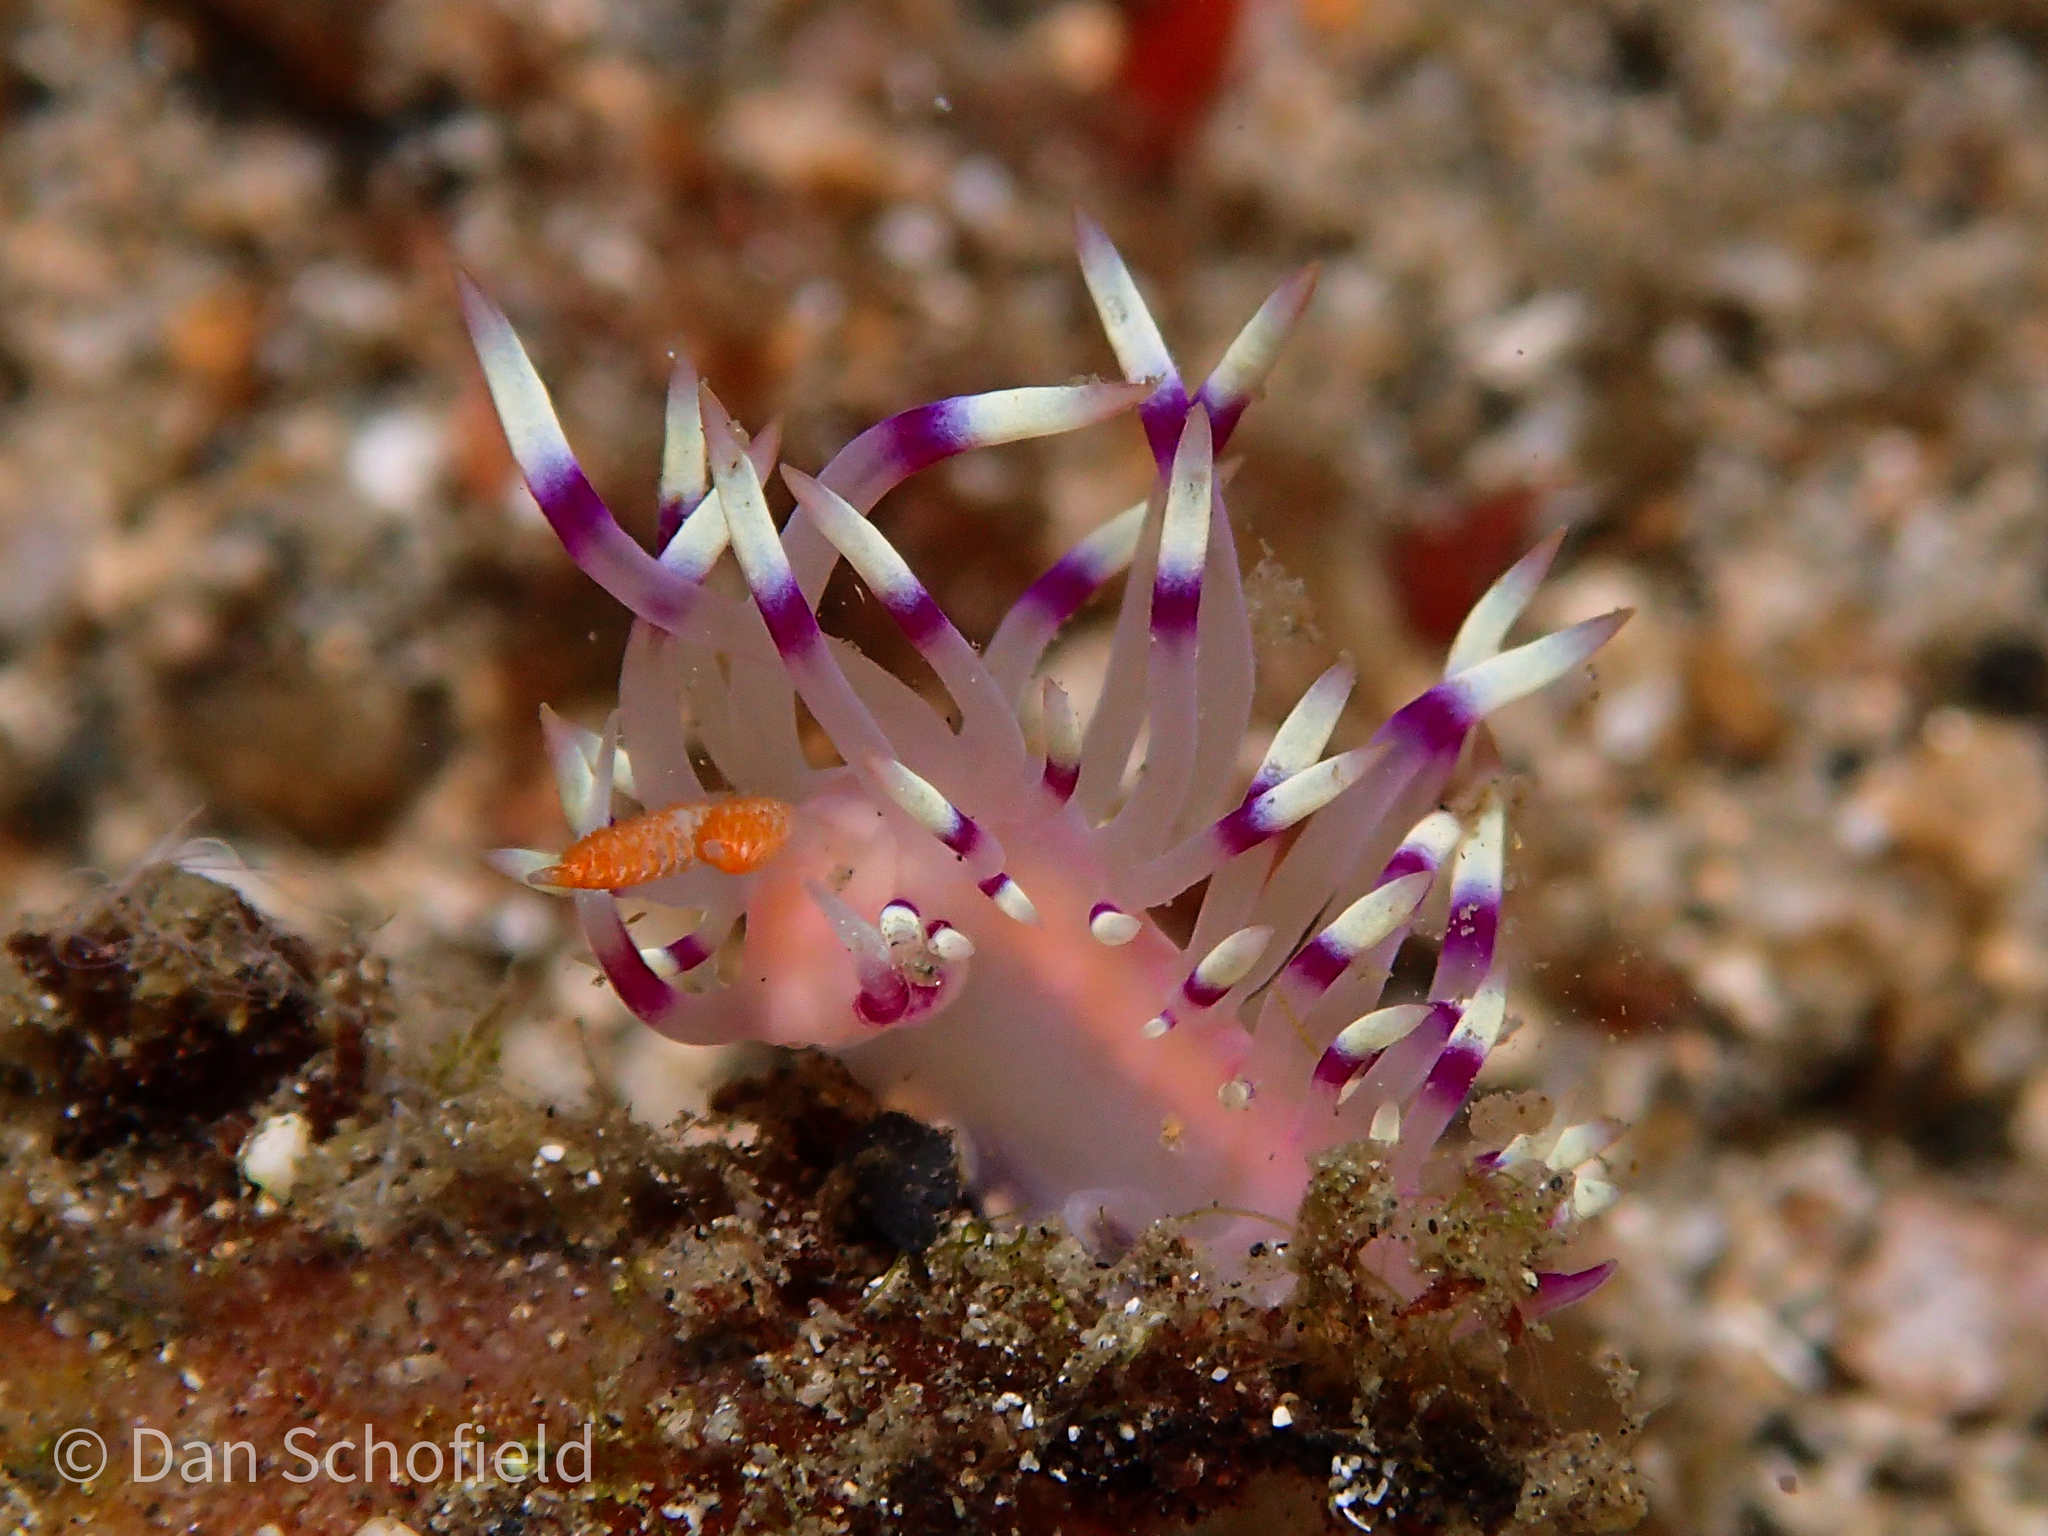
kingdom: Animalia
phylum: Mollusca
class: Gastropoda
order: Nudibranchia
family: Flabellinidae
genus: Coryphellina
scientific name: Coryphellina exoptata
